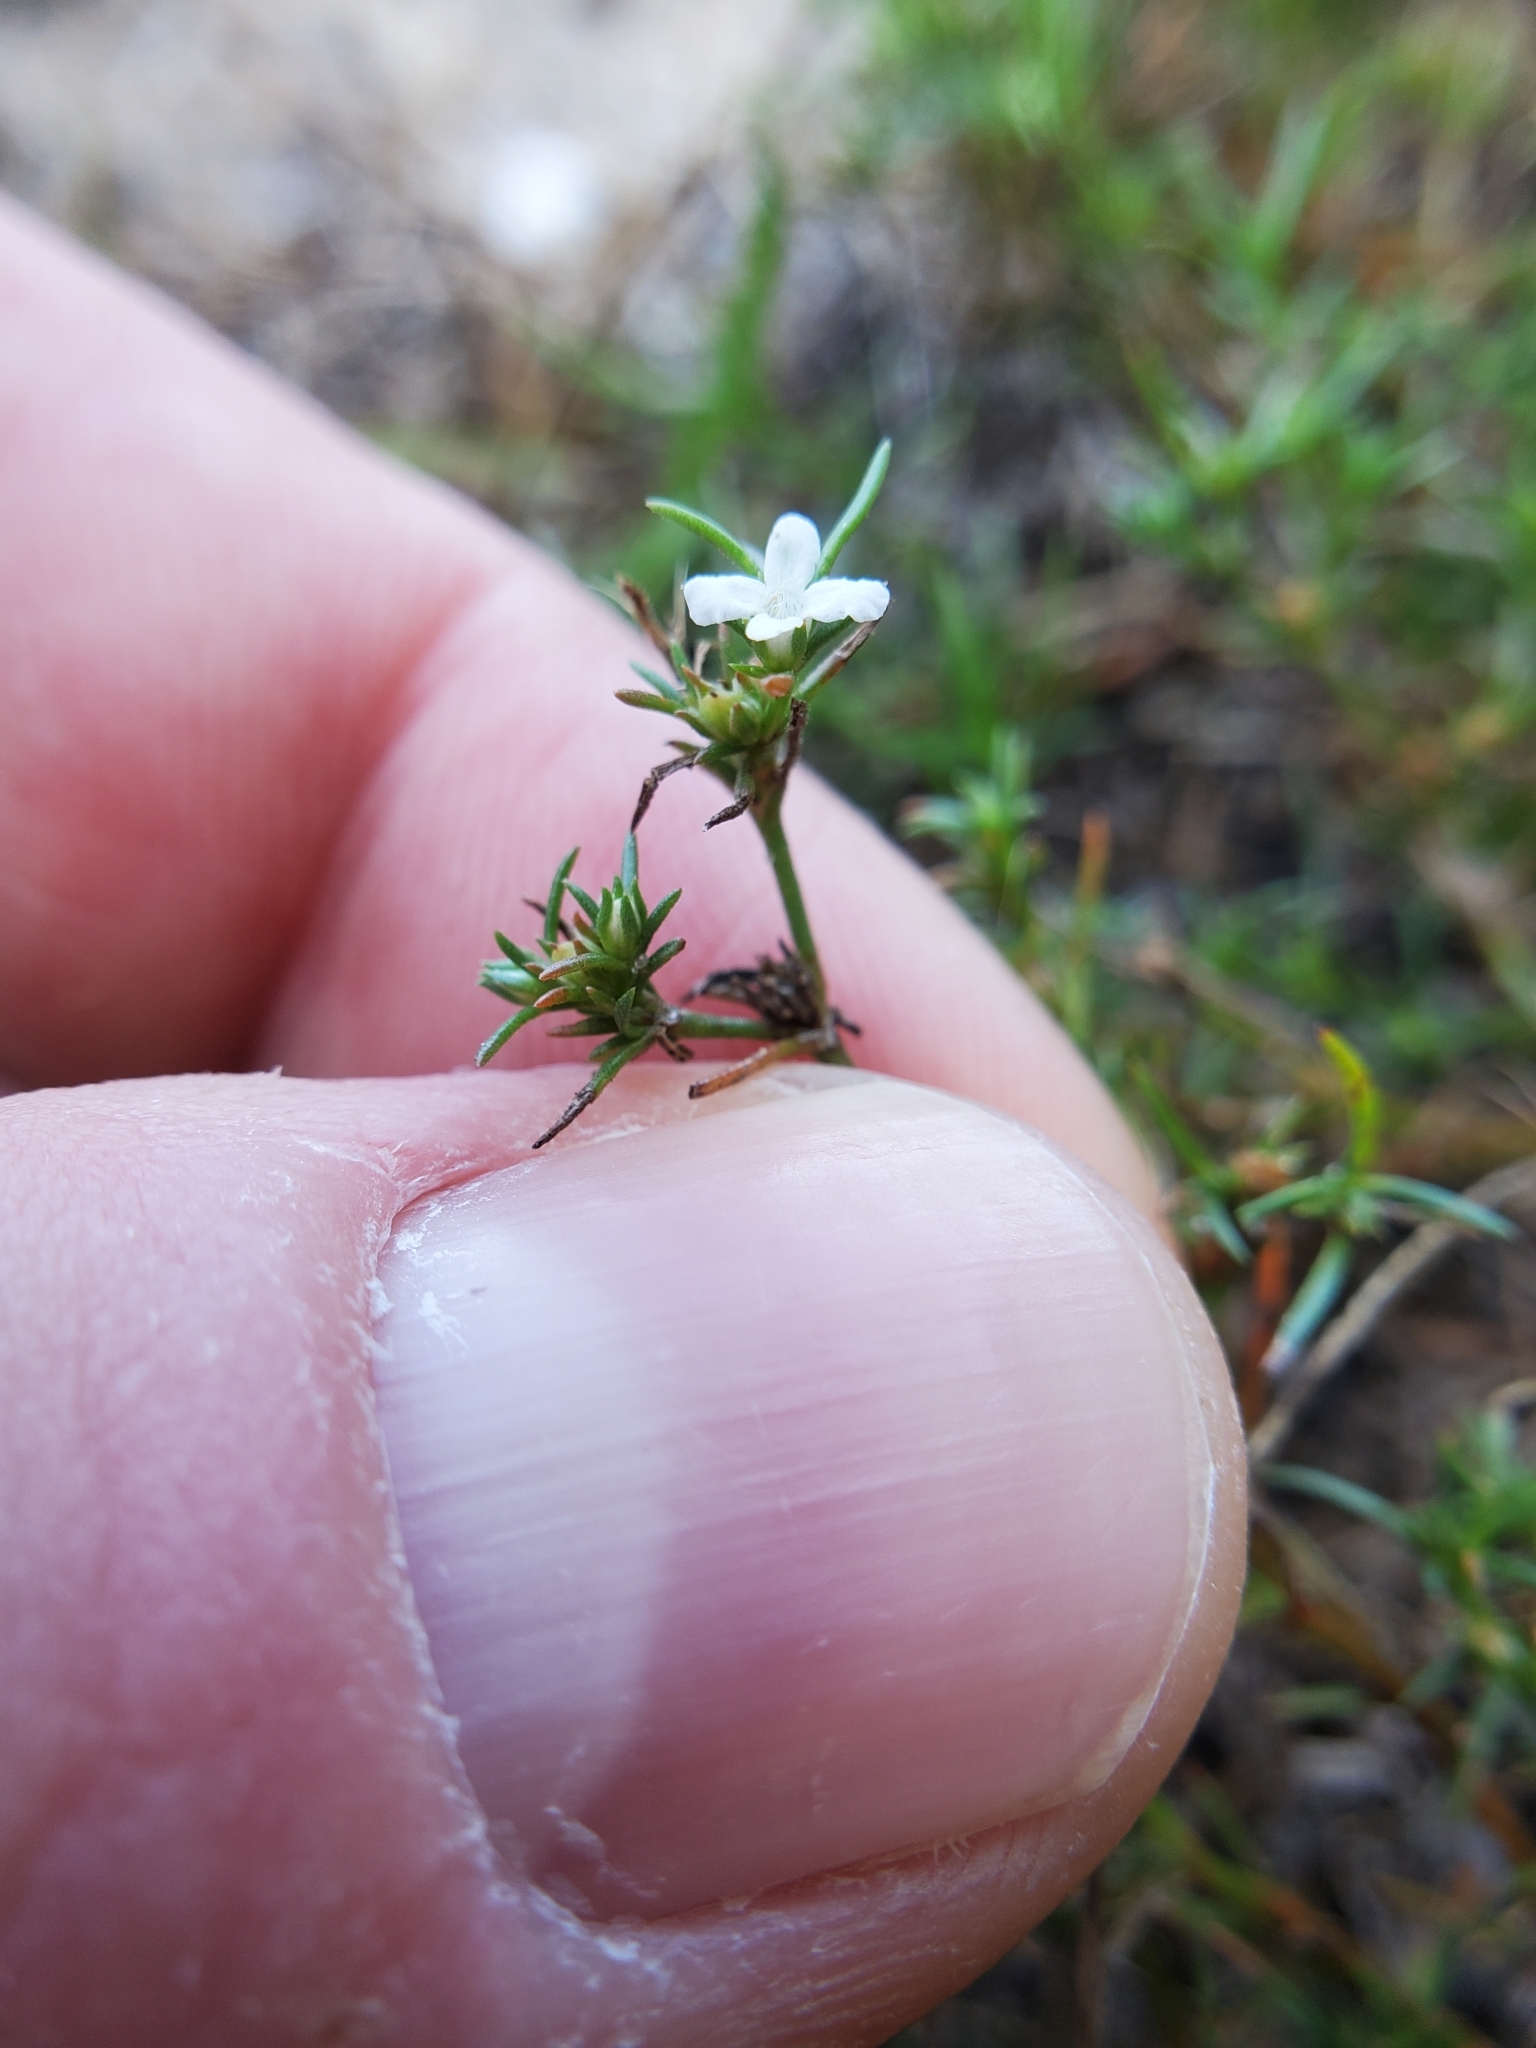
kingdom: Plantae
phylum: Tracheophyta
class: Magnoliopsida
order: Lamiales
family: Tetrachondraceae
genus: Polypremum
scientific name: Polypremum procumbens
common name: Juniper-leaf
